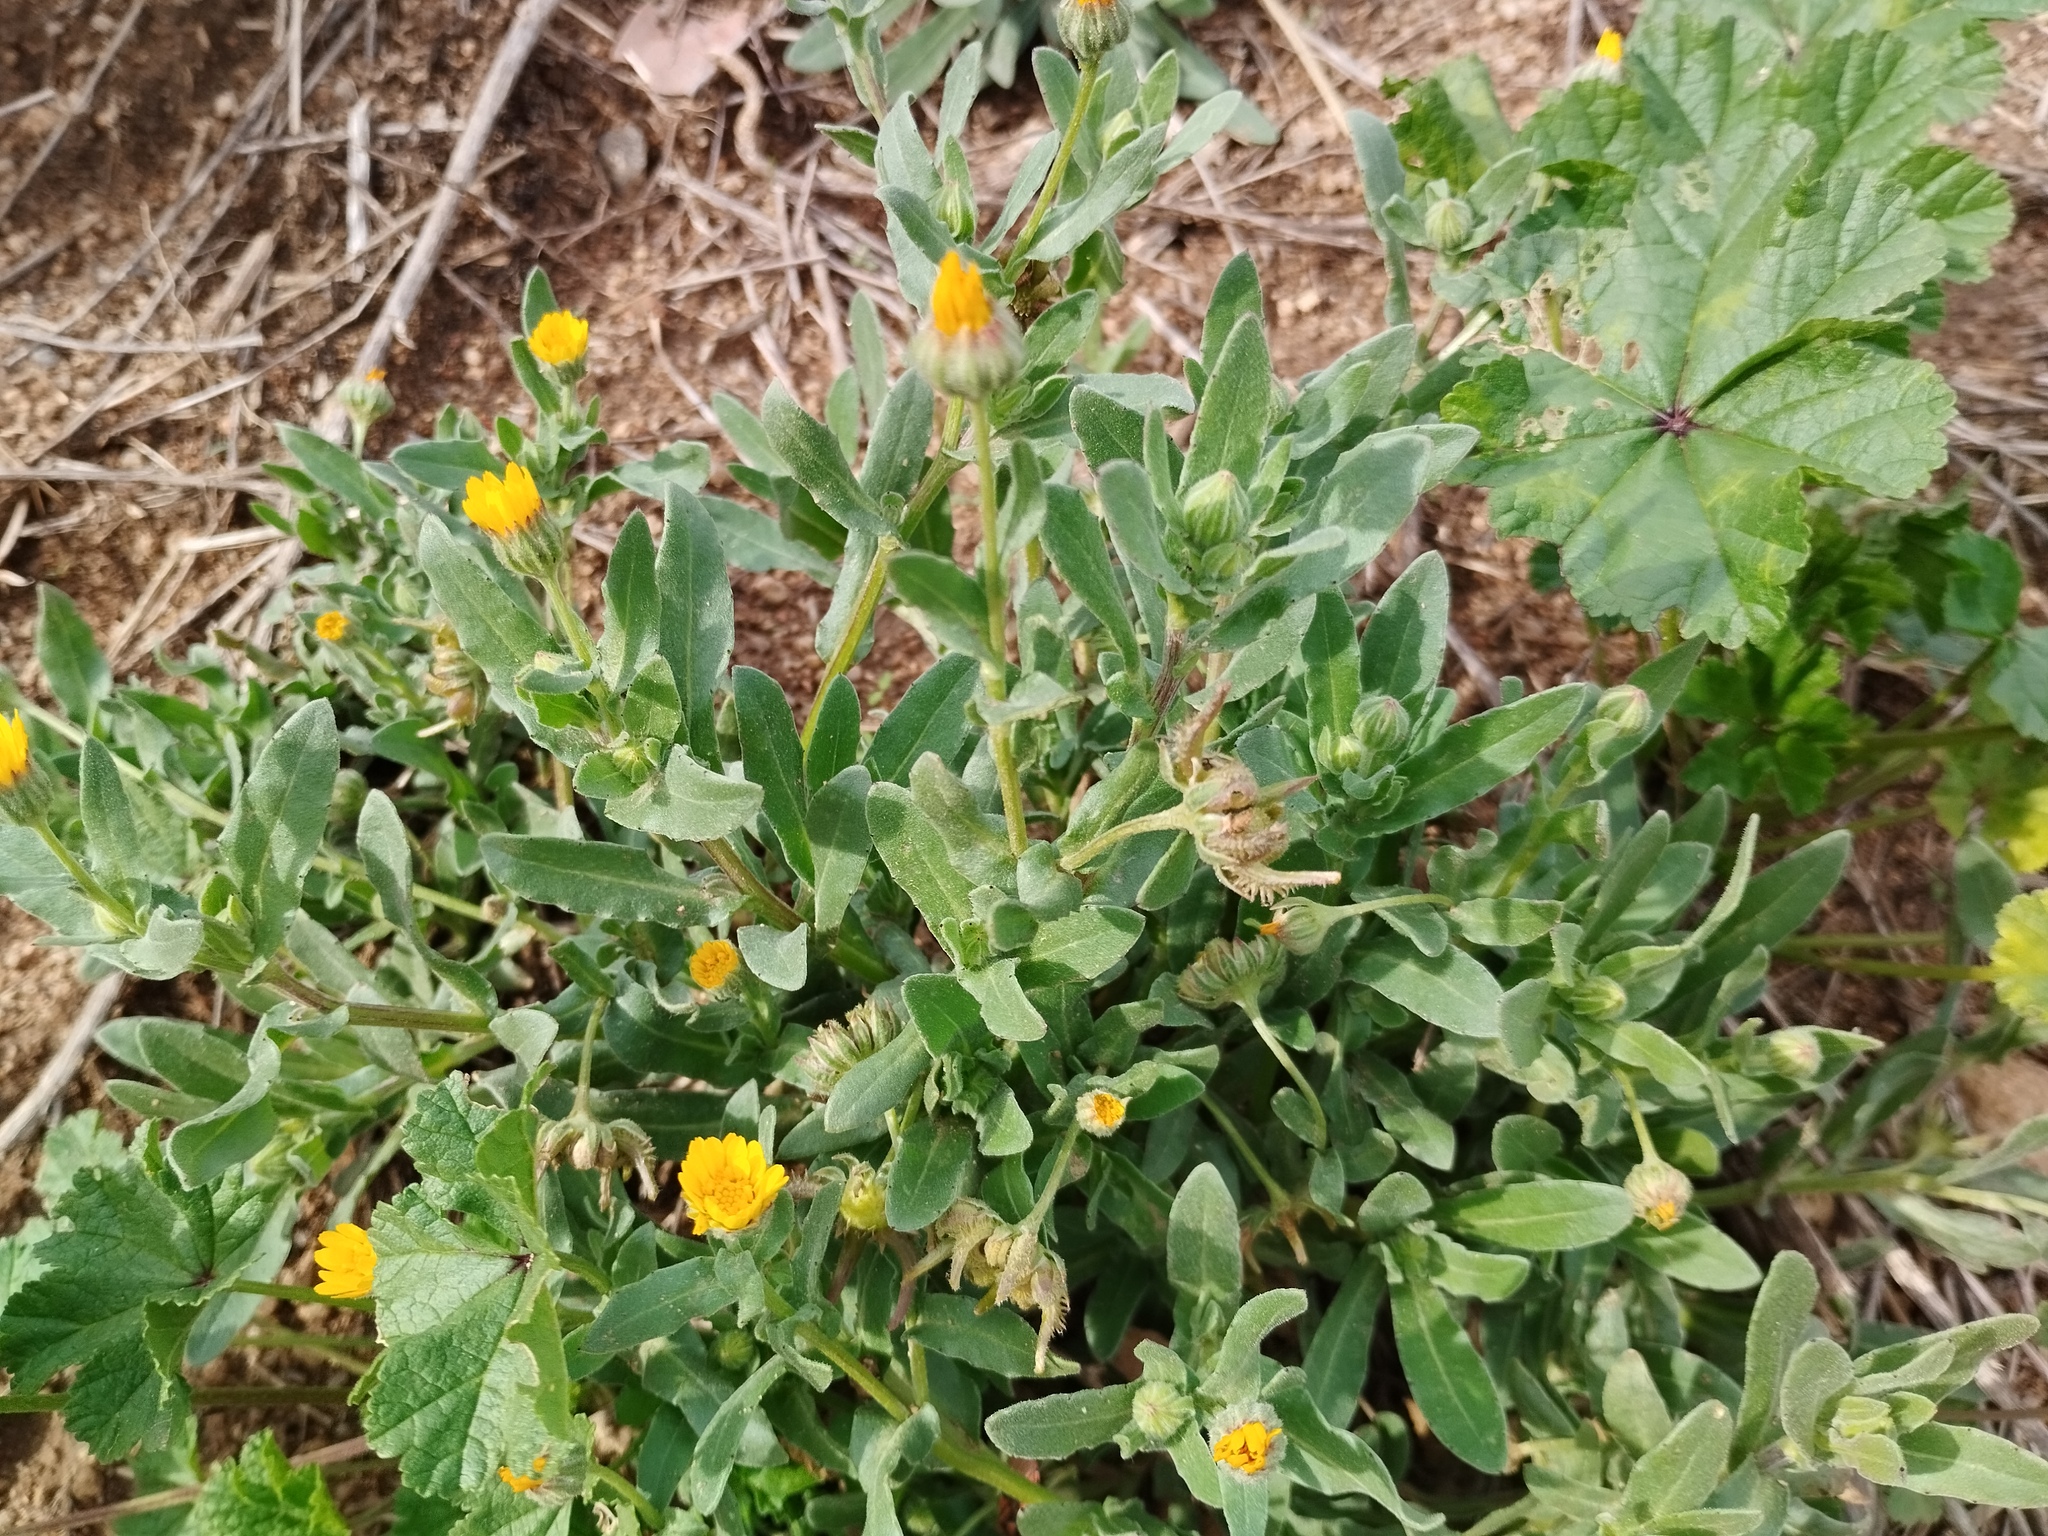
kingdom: Plantae
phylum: Tracheophyta
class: Magnoliopsida
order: Asterales
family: Asteraceae
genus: Calendula
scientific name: Calendula arvensis
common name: Field marigold
